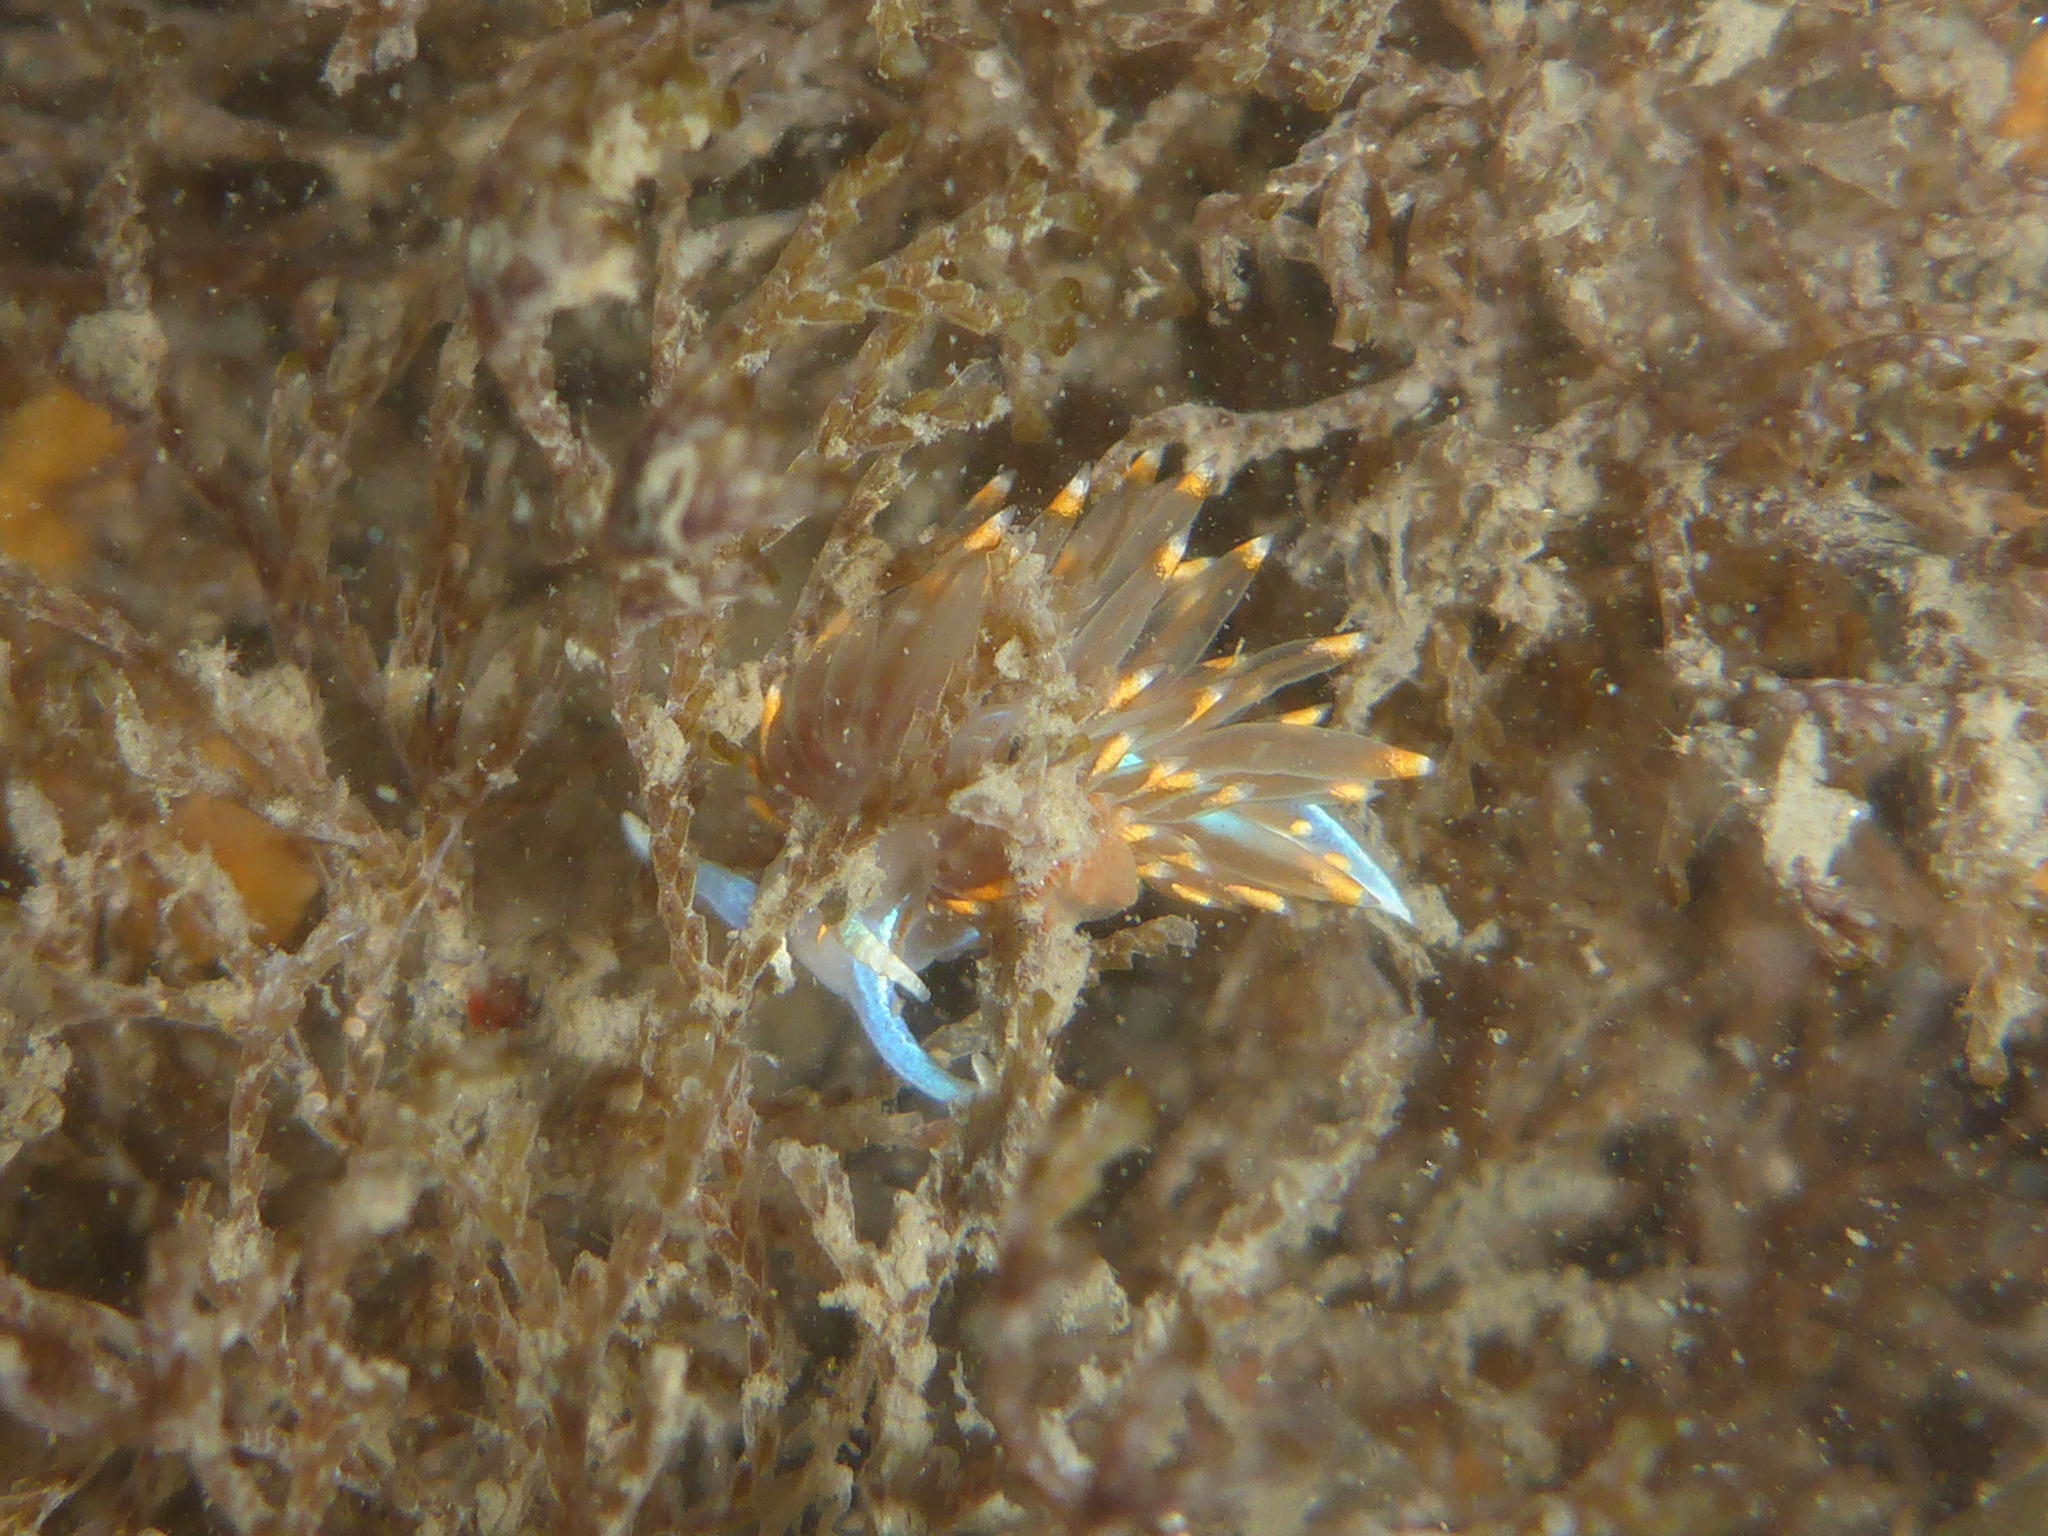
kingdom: Animalia
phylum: Mollusca
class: Gastropoda
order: Nudibranchia
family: Myrrhinidae
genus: Hermissenda
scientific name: Hermissenda opalescens
